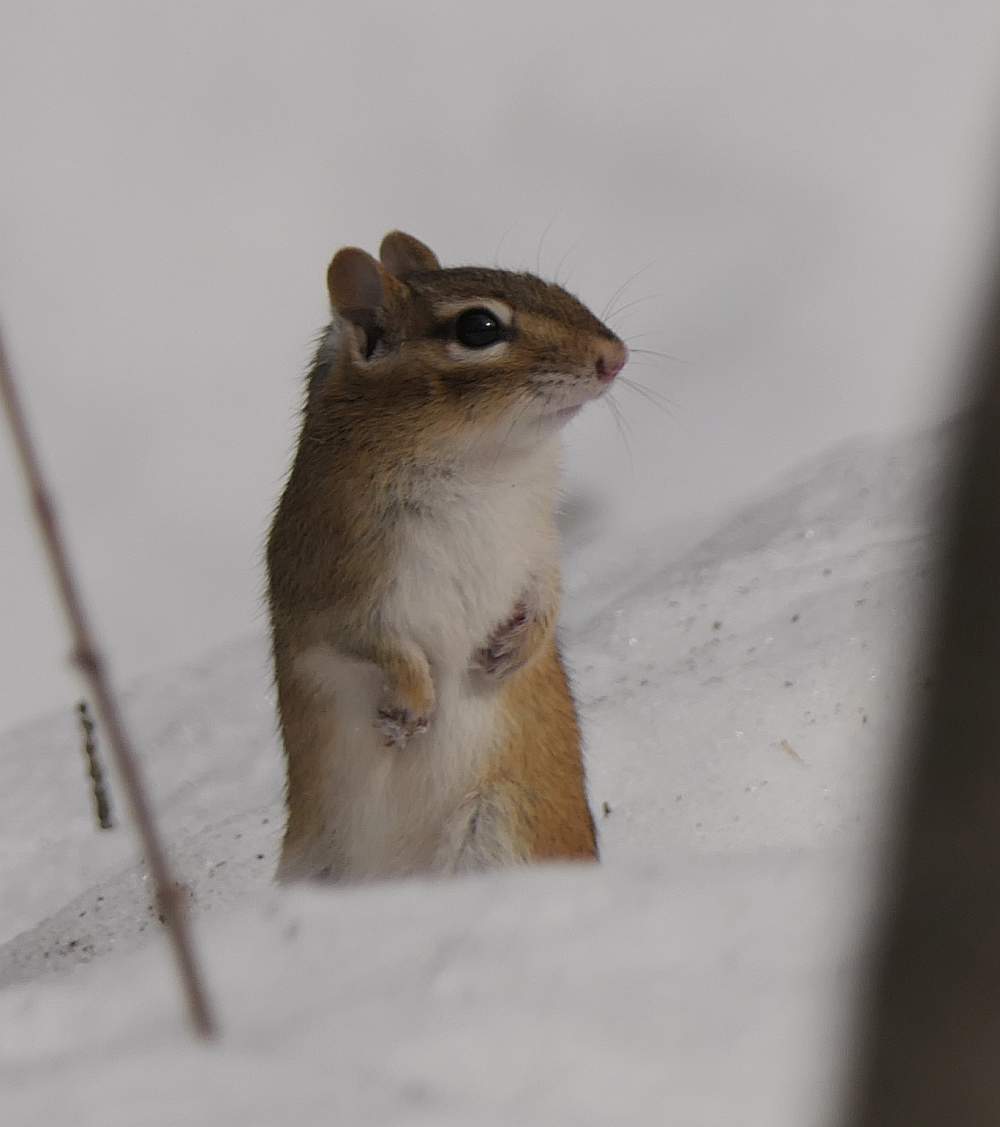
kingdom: Animalia
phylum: Chordata
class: Mammalia
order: Rodentia
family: Sciuridae
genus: Tamias
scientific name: Tamias striatus
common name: Eastern chipmunk
